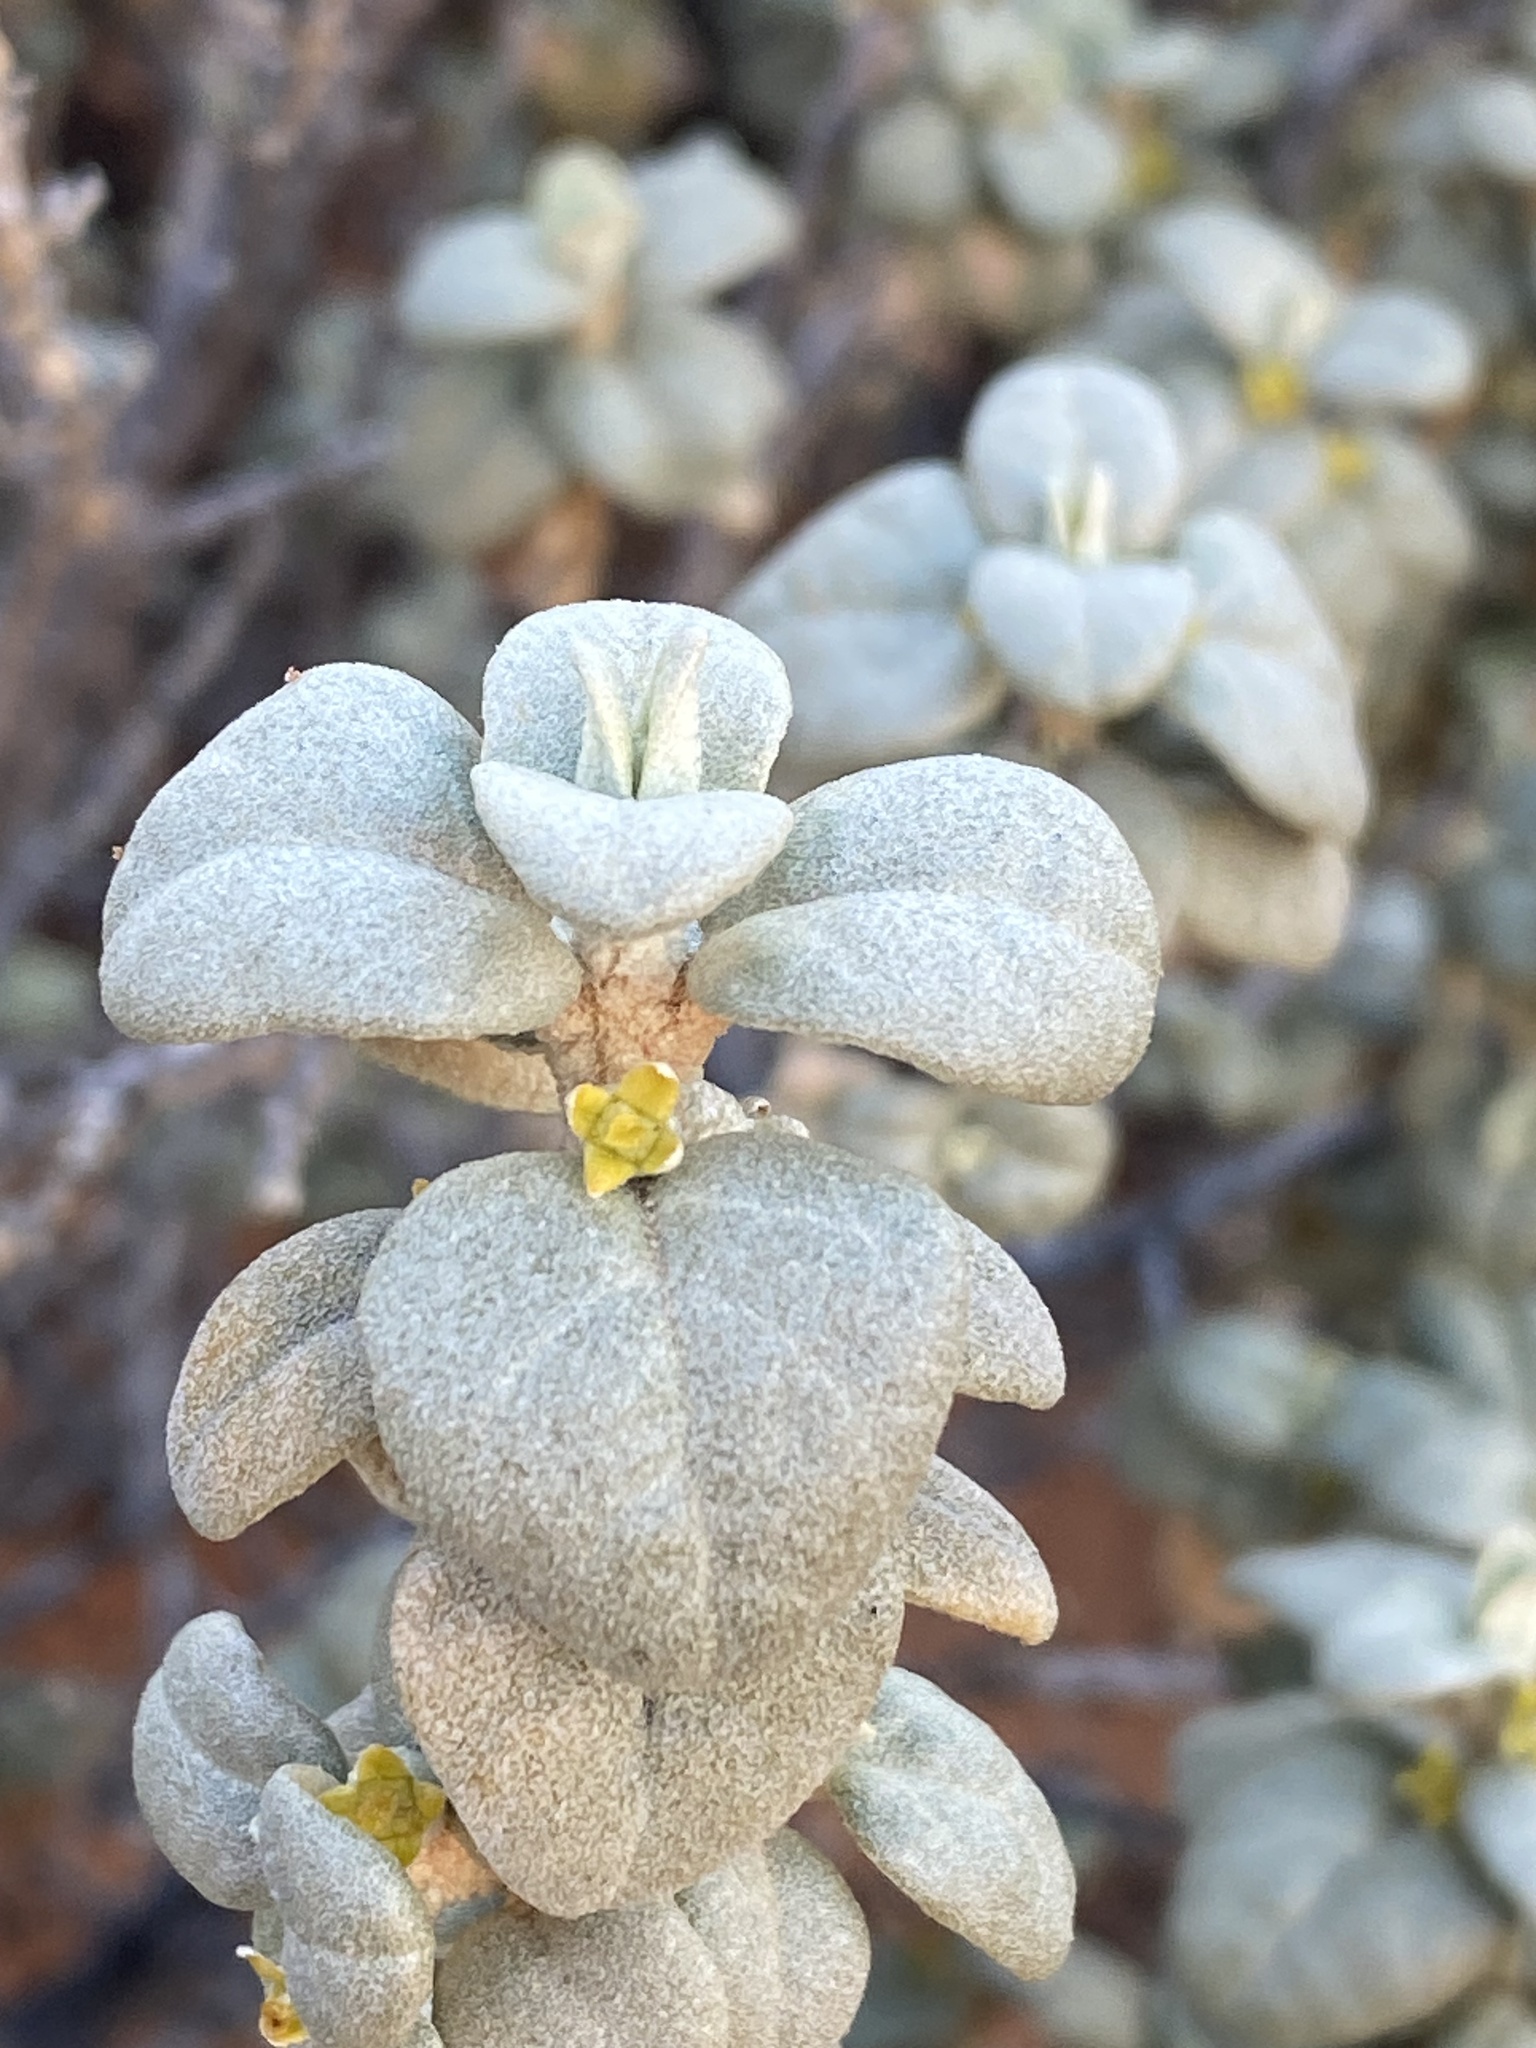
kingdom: Plantae
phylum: Tracheophyta
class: Magnoliopsida
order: Rosales
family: Elaeagnaceae
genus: Shepherdia
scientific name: Shepherdia rotundifolia
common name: Silverscale
